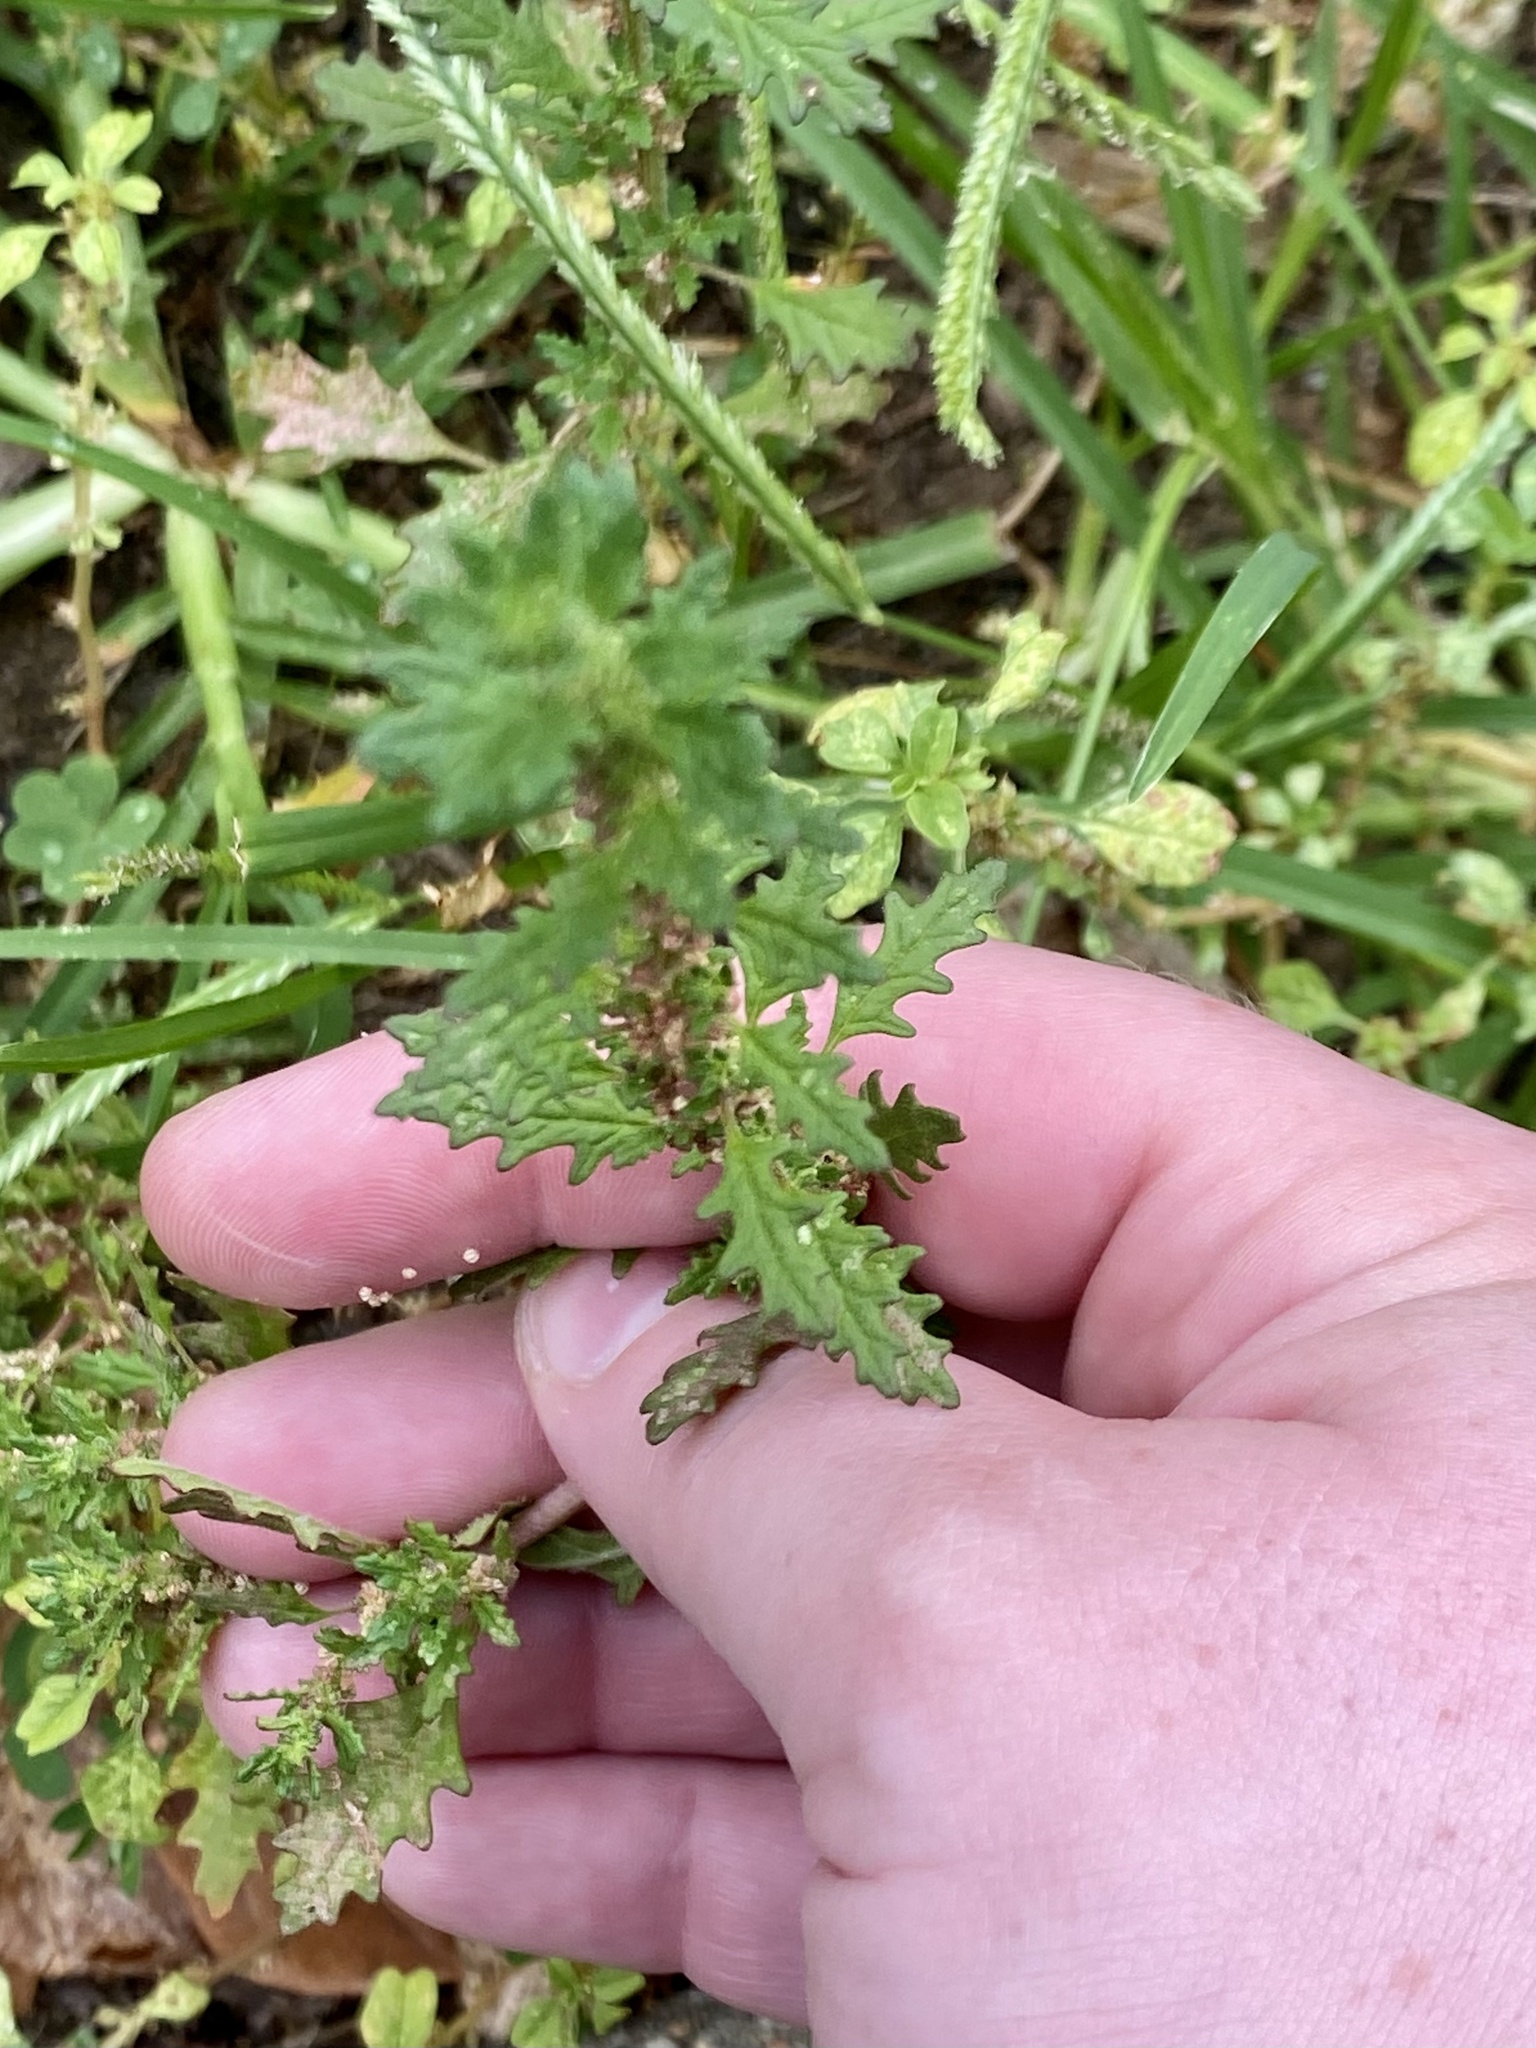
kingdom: Plantae
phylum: Tracheophyta
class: Magnoliopsida
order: Caryophyllales
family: Amaranthaceae
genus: Dysphania
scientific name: Dysphania pumilio
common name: Clammy goosefoot
